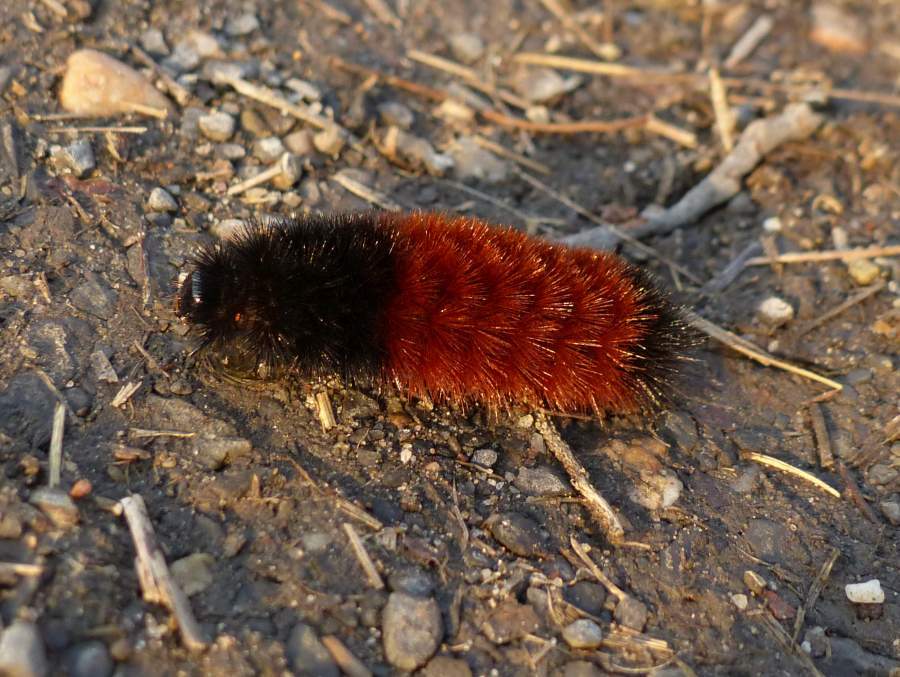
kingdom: Animalia
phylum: Arthropoda
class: Insecta
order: Lepidoptera
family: Erebidae
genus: Pyrrharctia
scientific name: Pyrrharctia isabella
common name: Isabella tiger moth
